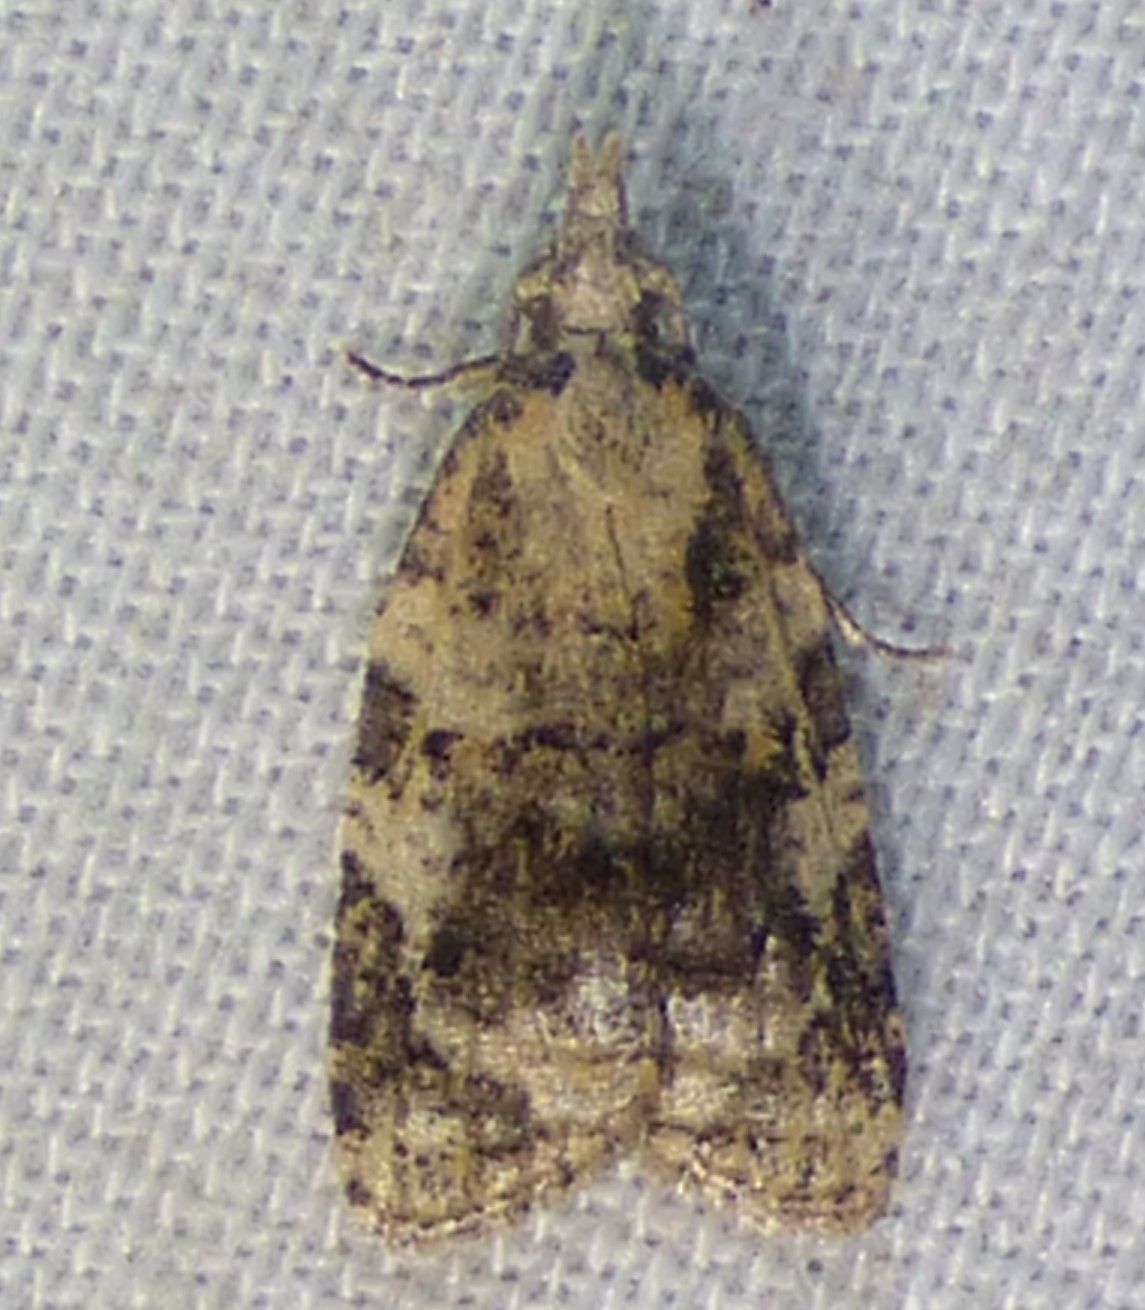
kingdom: Animalia
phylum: Arthropoda
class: Insecta
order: Lepidoptera
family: Tortricidae
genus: Platynota
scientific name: Platynota exasperatana
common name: Exasperating platynota moth
